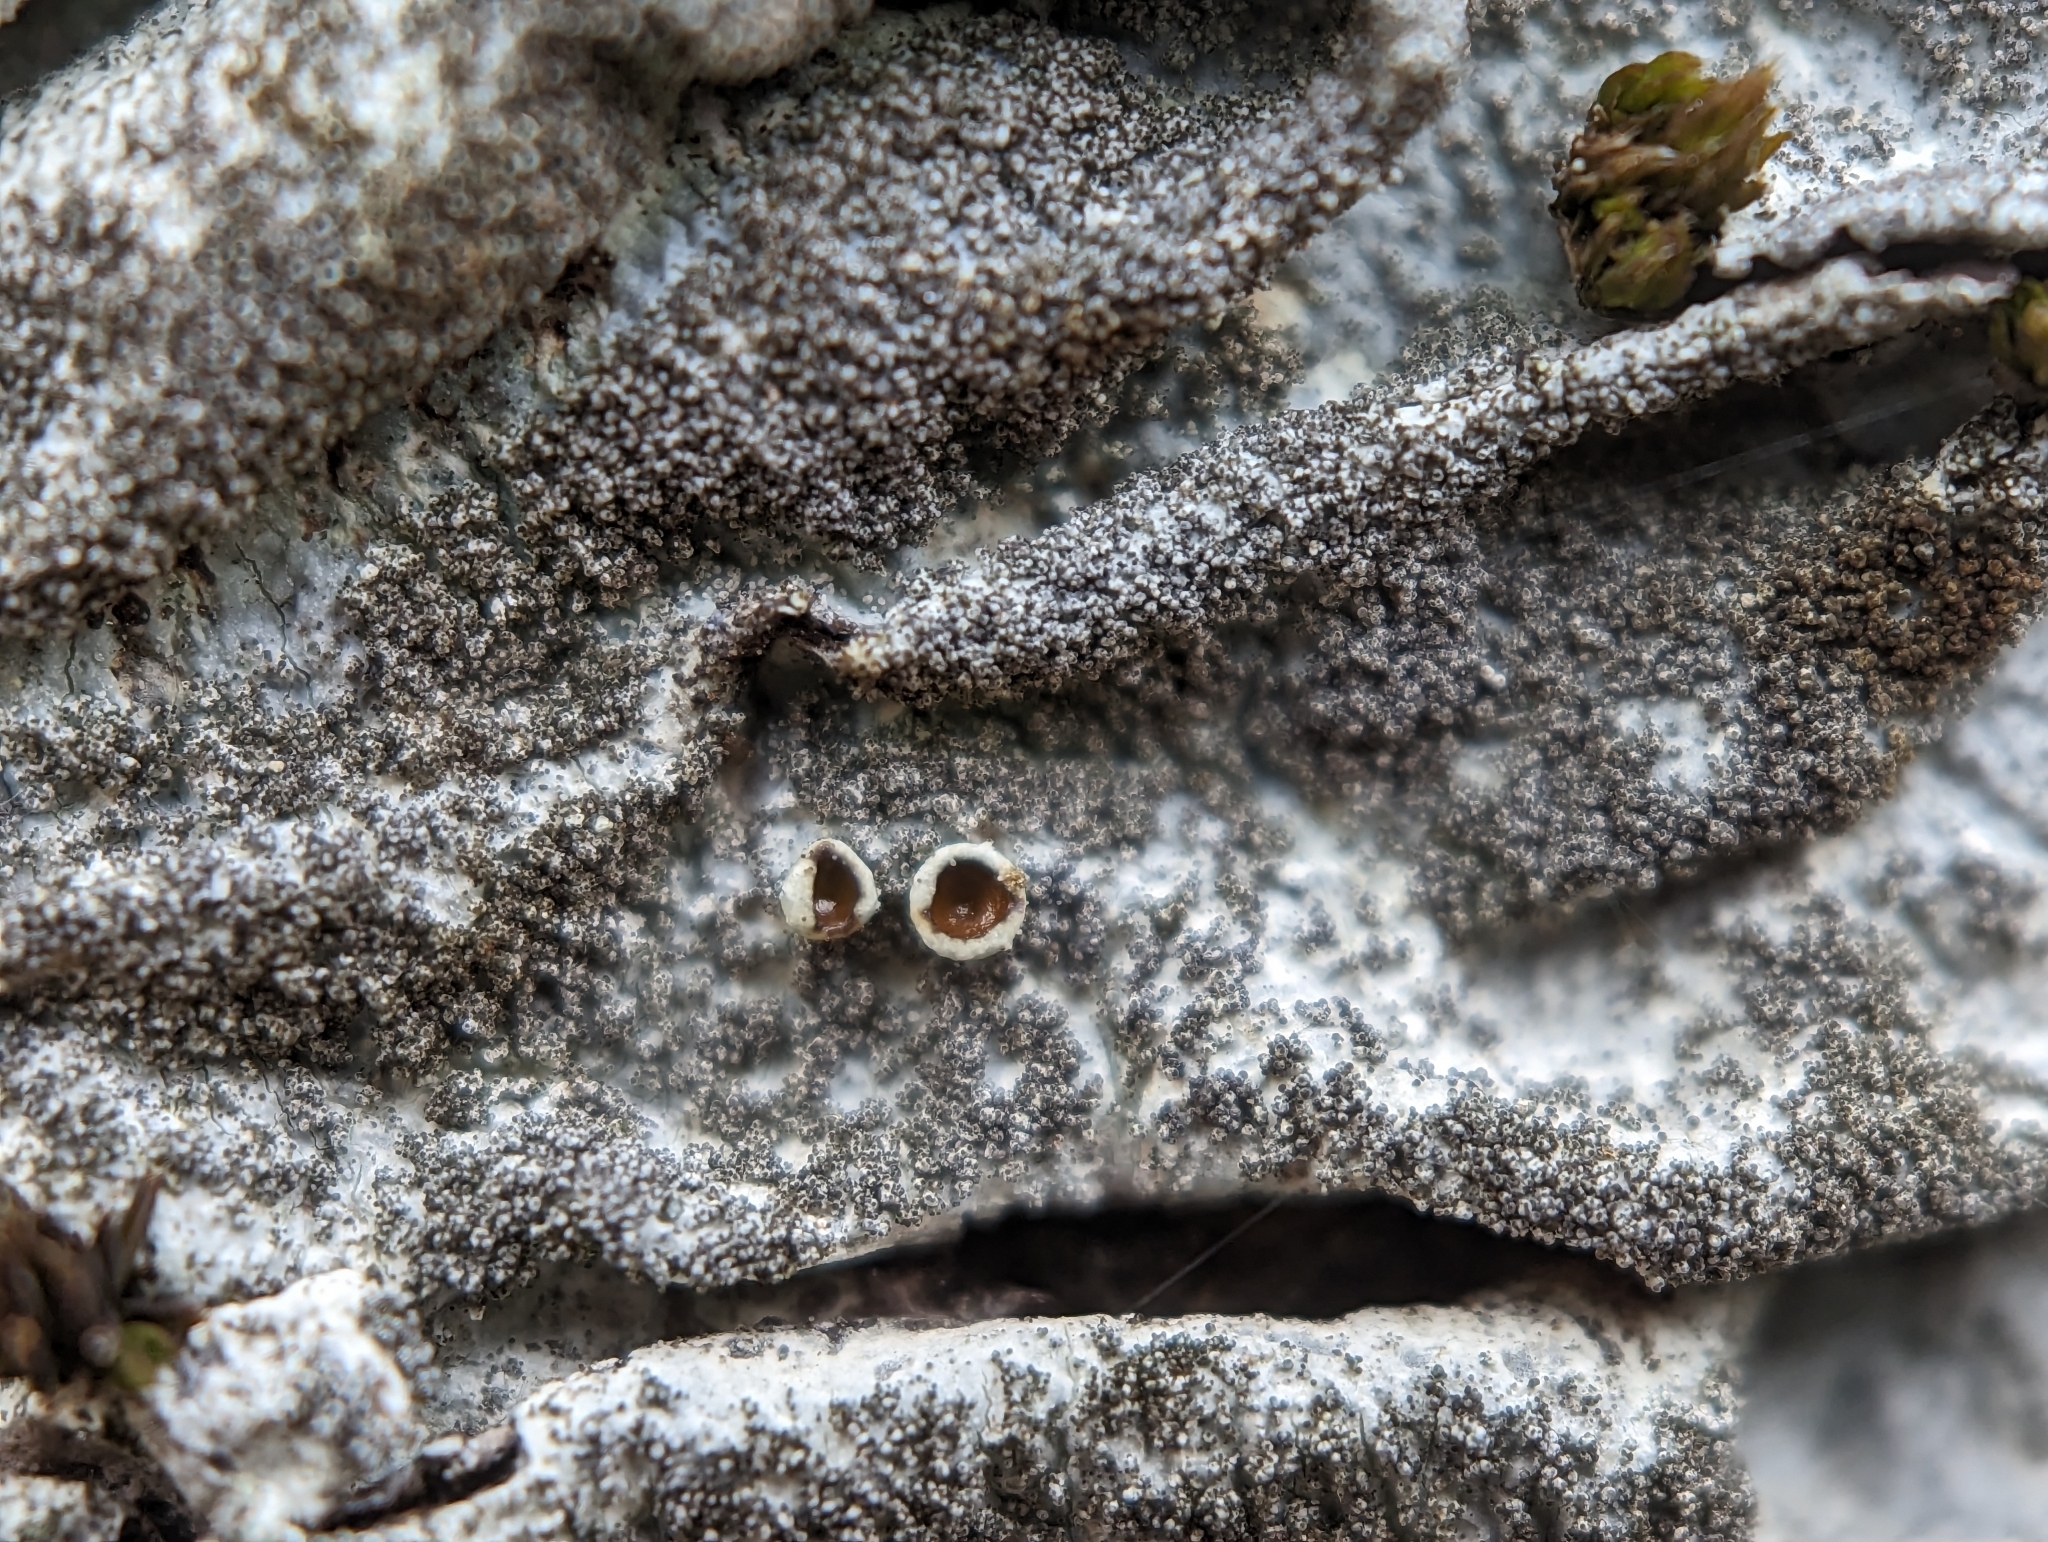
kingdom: Fungi
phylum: Ascomycota
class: Lecanoromycetes
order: Lecanorales
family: Parmeliaceae
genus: Parmelina
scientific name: Parmelina tiliacea
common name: Linden shield lichen
